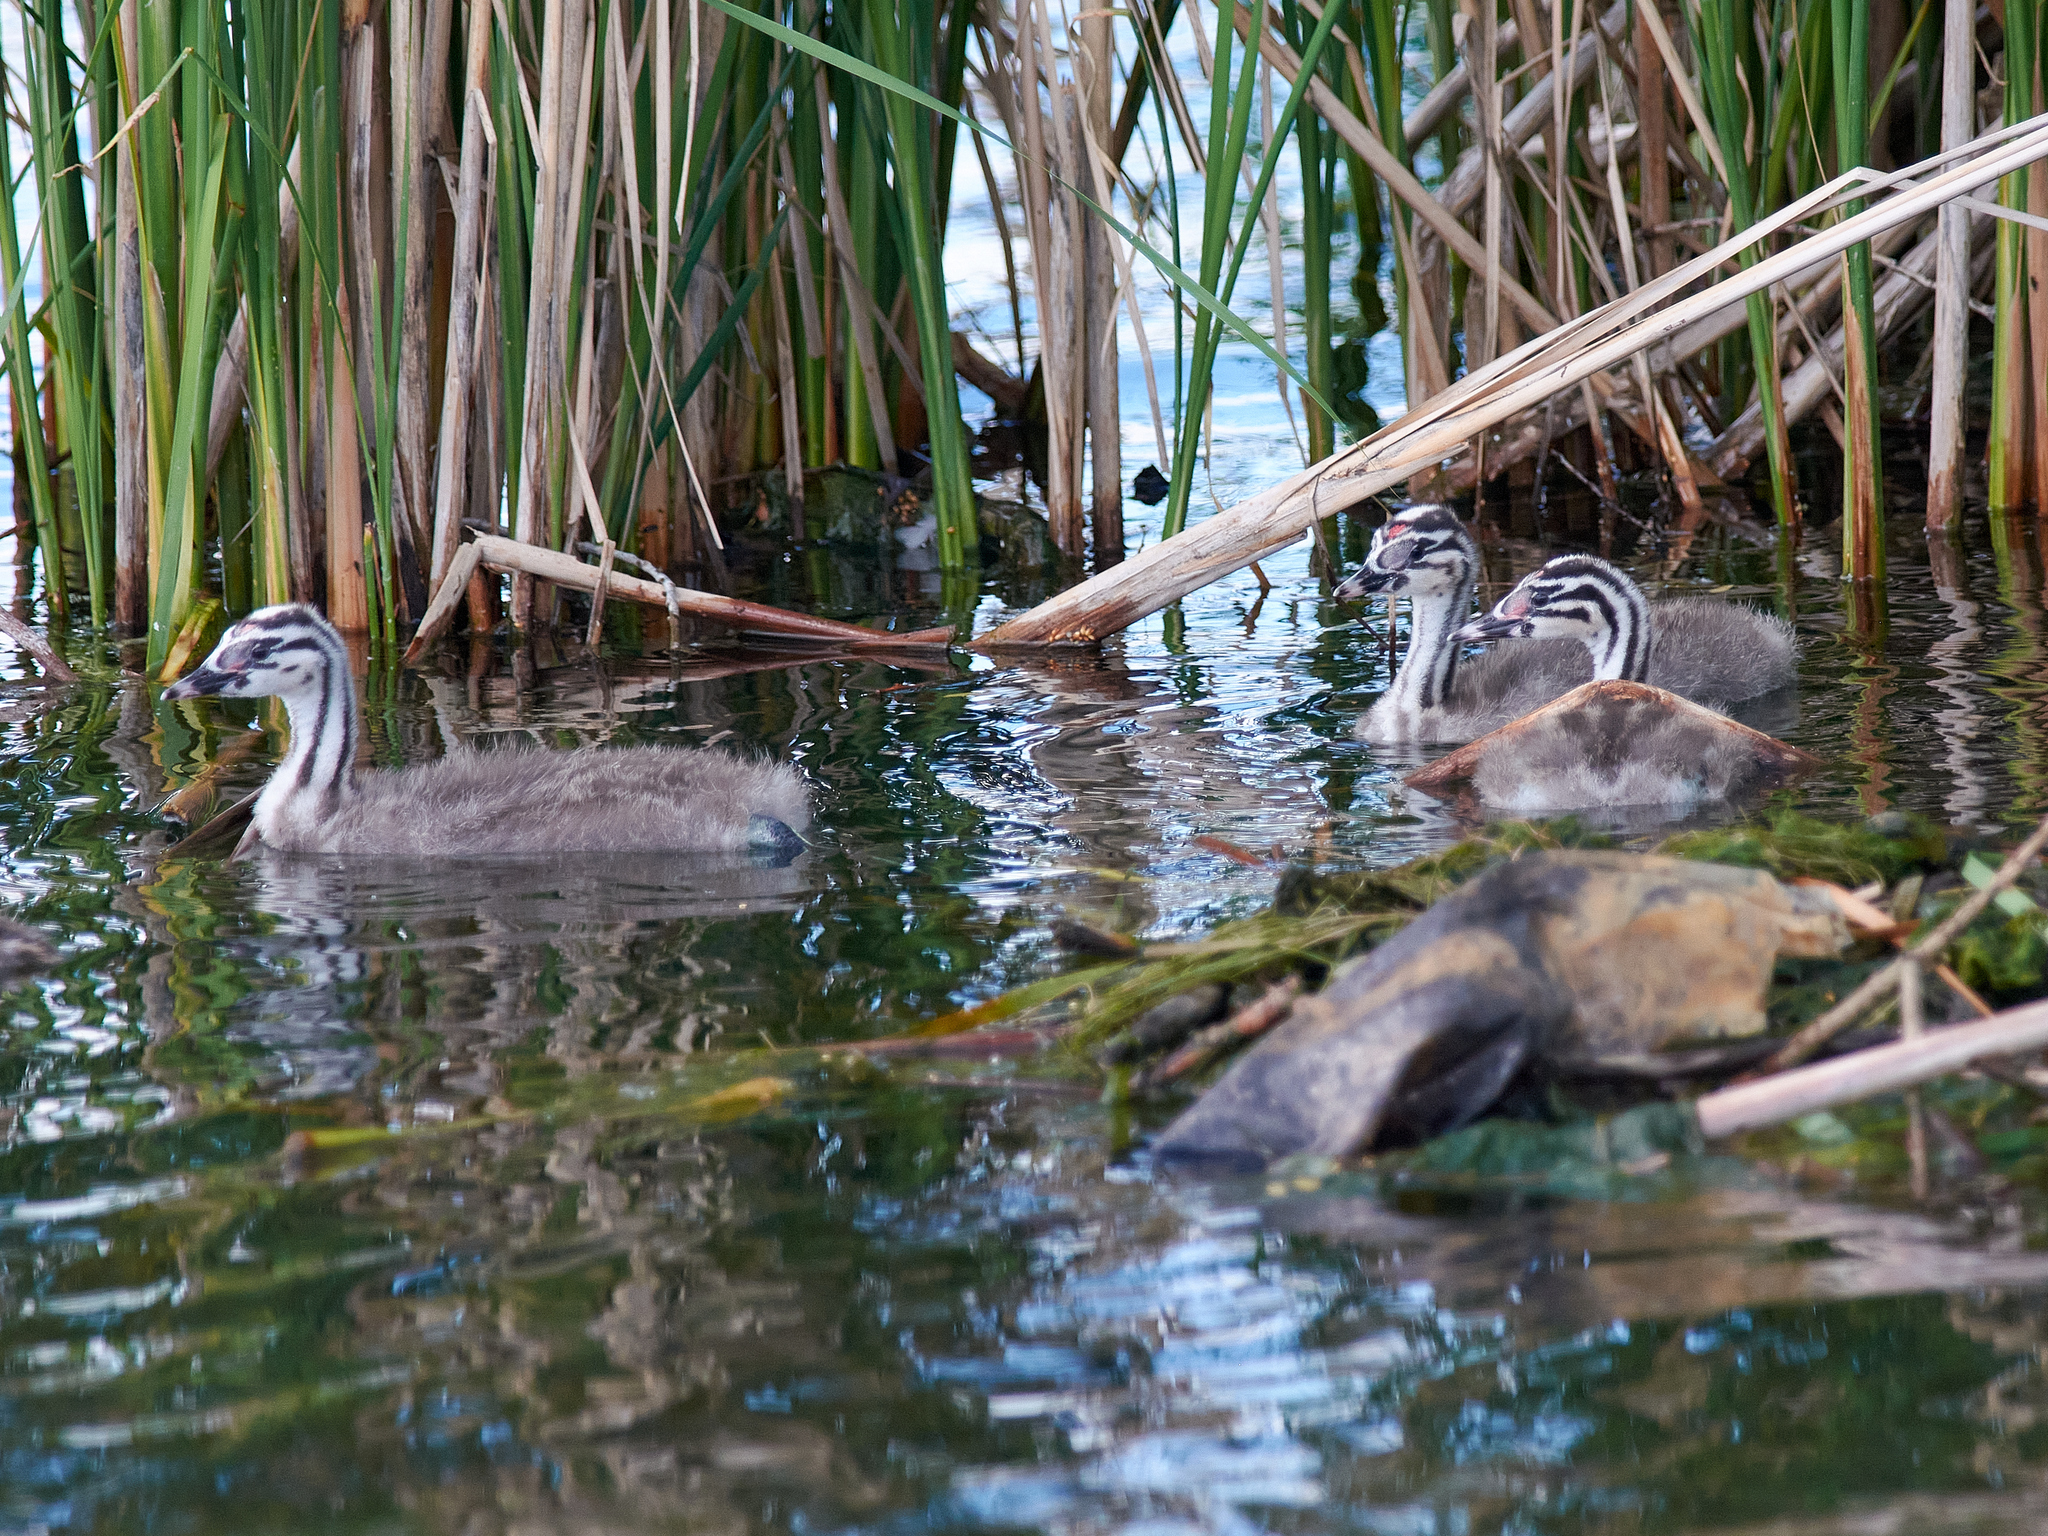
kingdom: Animalia
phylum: Chordata
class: Aves
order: Podicipediformes
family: Podicipedidae
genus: Podiceps
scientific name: Podiceps cristatus
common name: Great crested grebe
